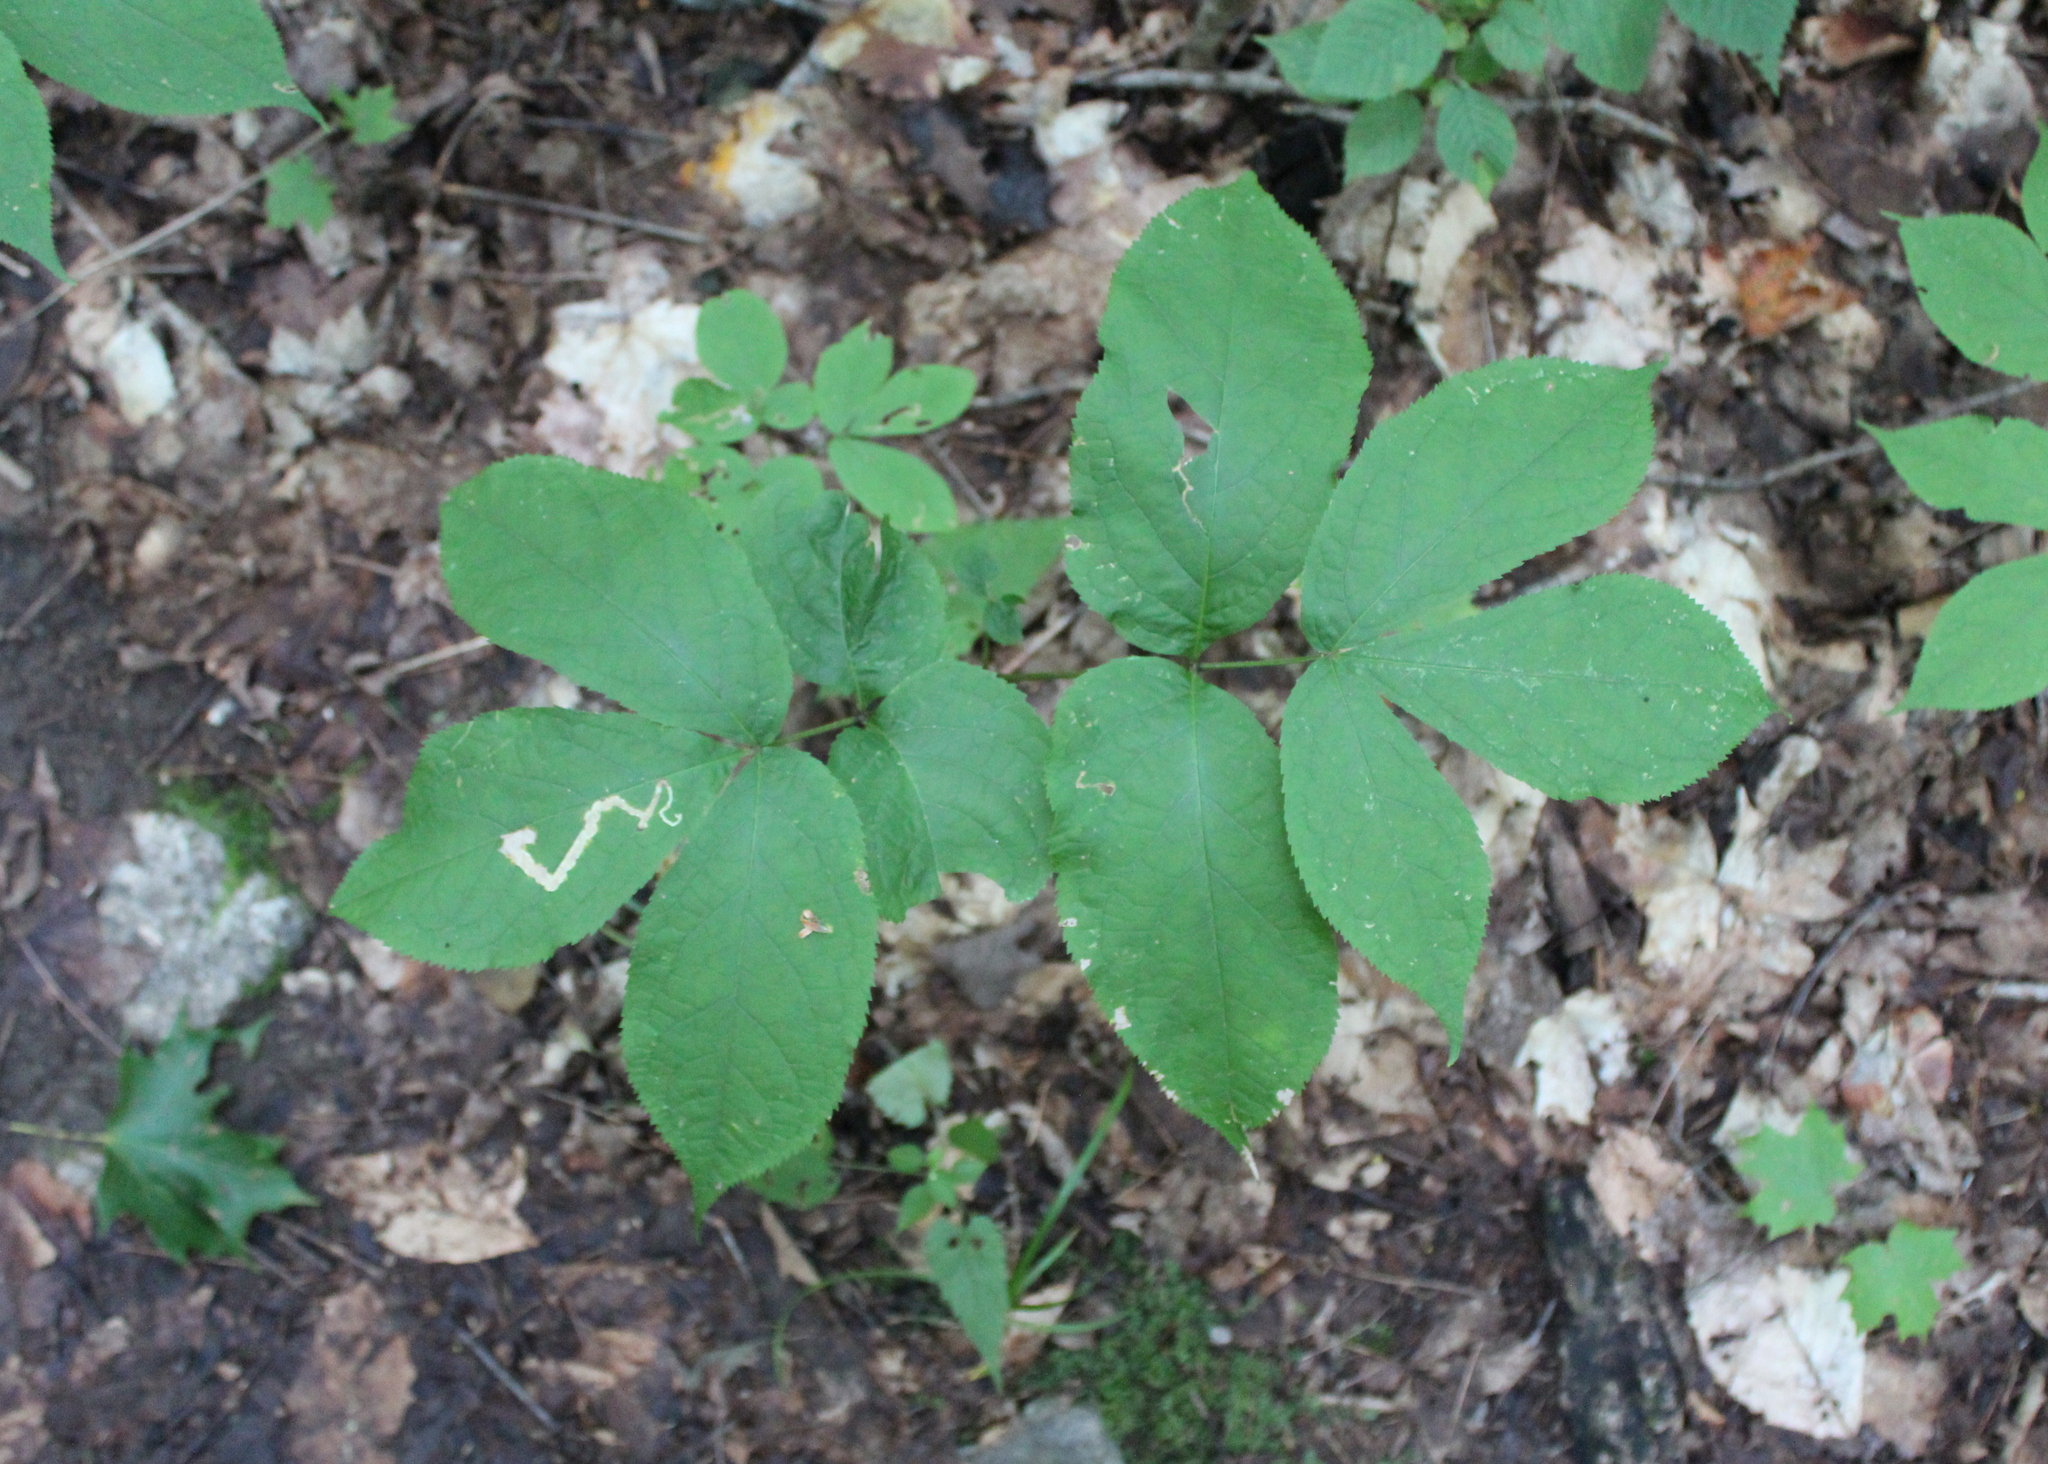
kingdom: Plantae
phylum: Tracheophyta
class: Magnoliopsida
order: Apiales
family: Araliaceae
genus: Aralia
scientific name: Aralia nudicaulis
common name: Wild sarsaparilla
